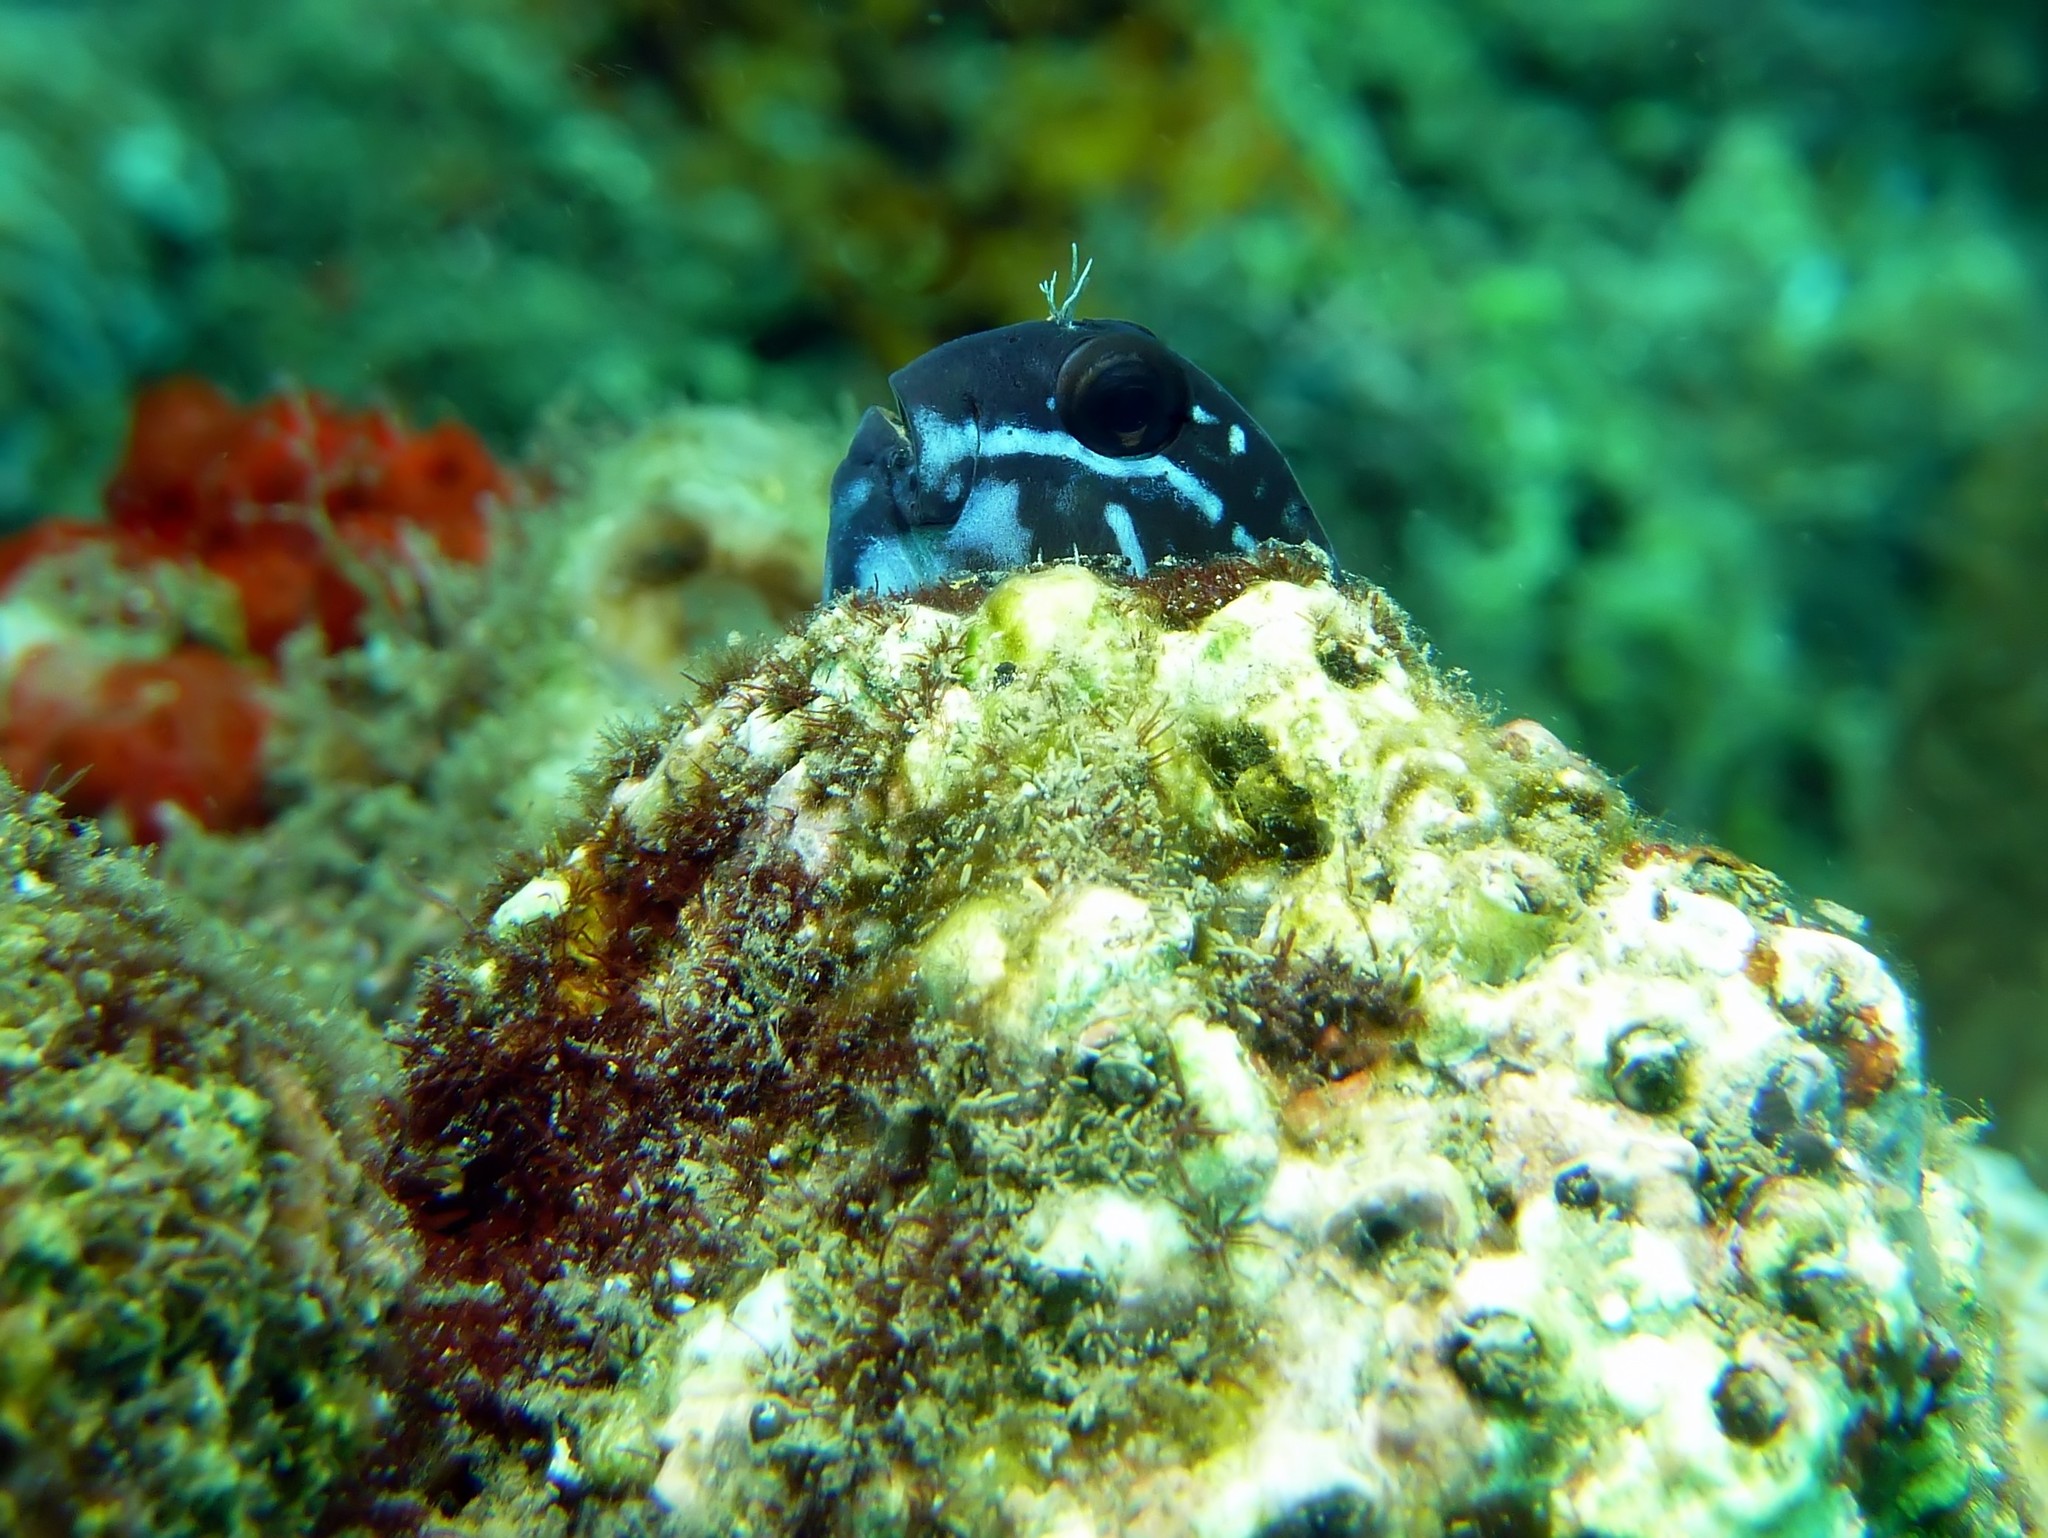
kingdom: Animalia
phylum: Chordata
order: Perciformes
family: Blenniidae
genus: Ecsenius
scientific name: Ecsenius namiyei
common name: Black comb-tooth
